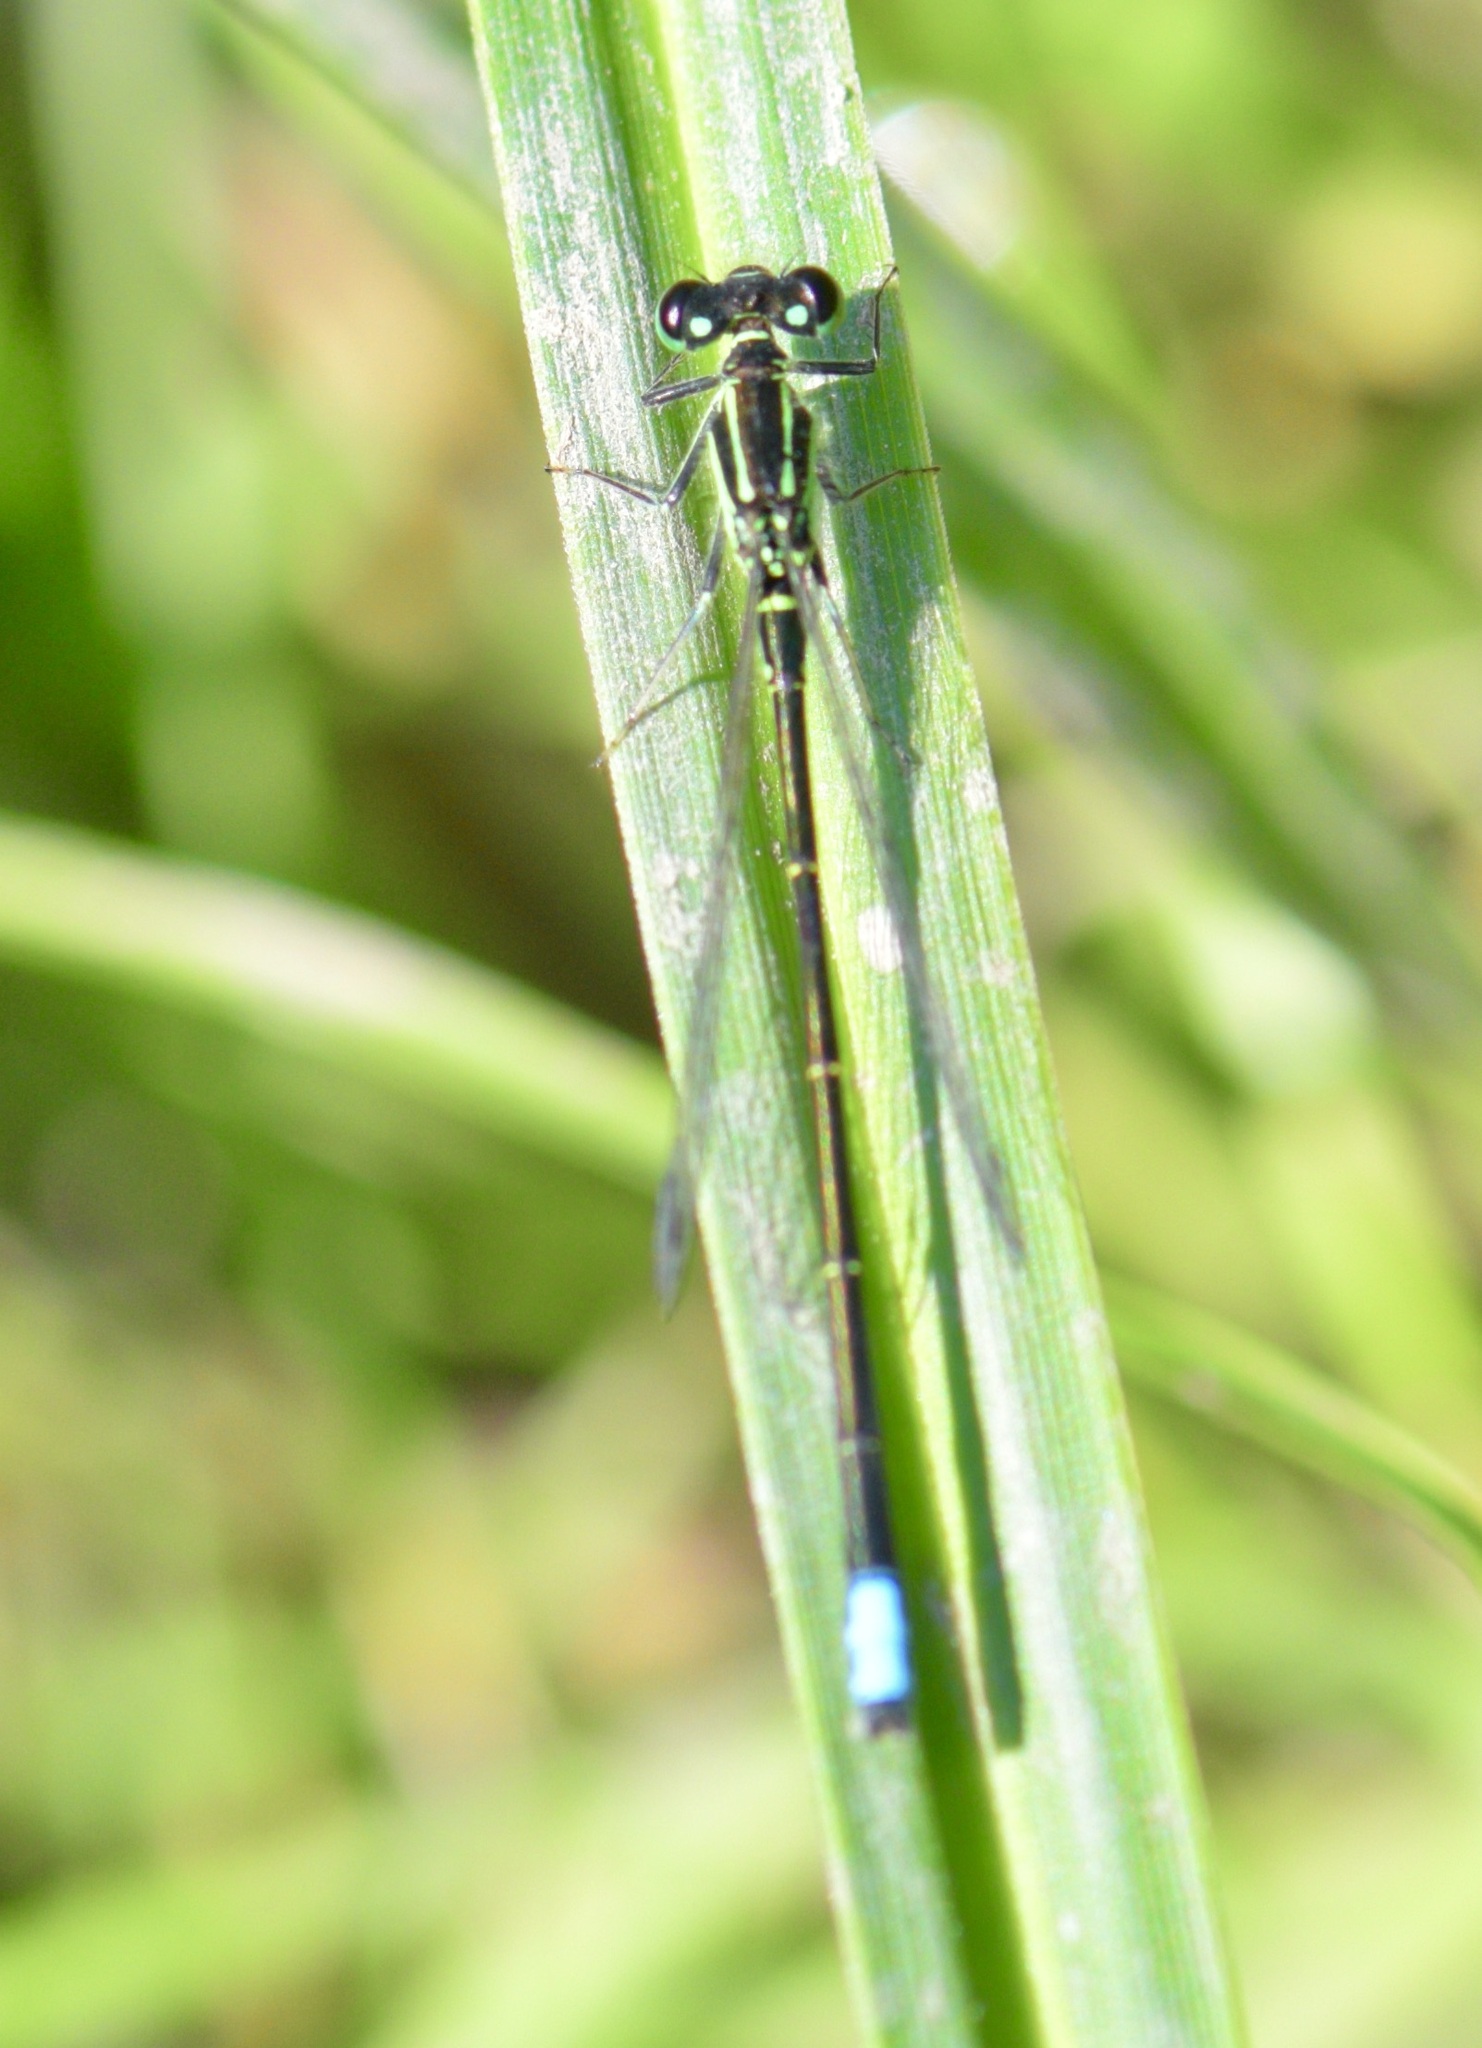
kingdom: Animalia
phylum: Arthropoda
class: Insecta
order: Odonata
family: Coenagrionidae
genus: Ischnura
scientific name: Ischnura verticalis
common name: Eastern forktail
